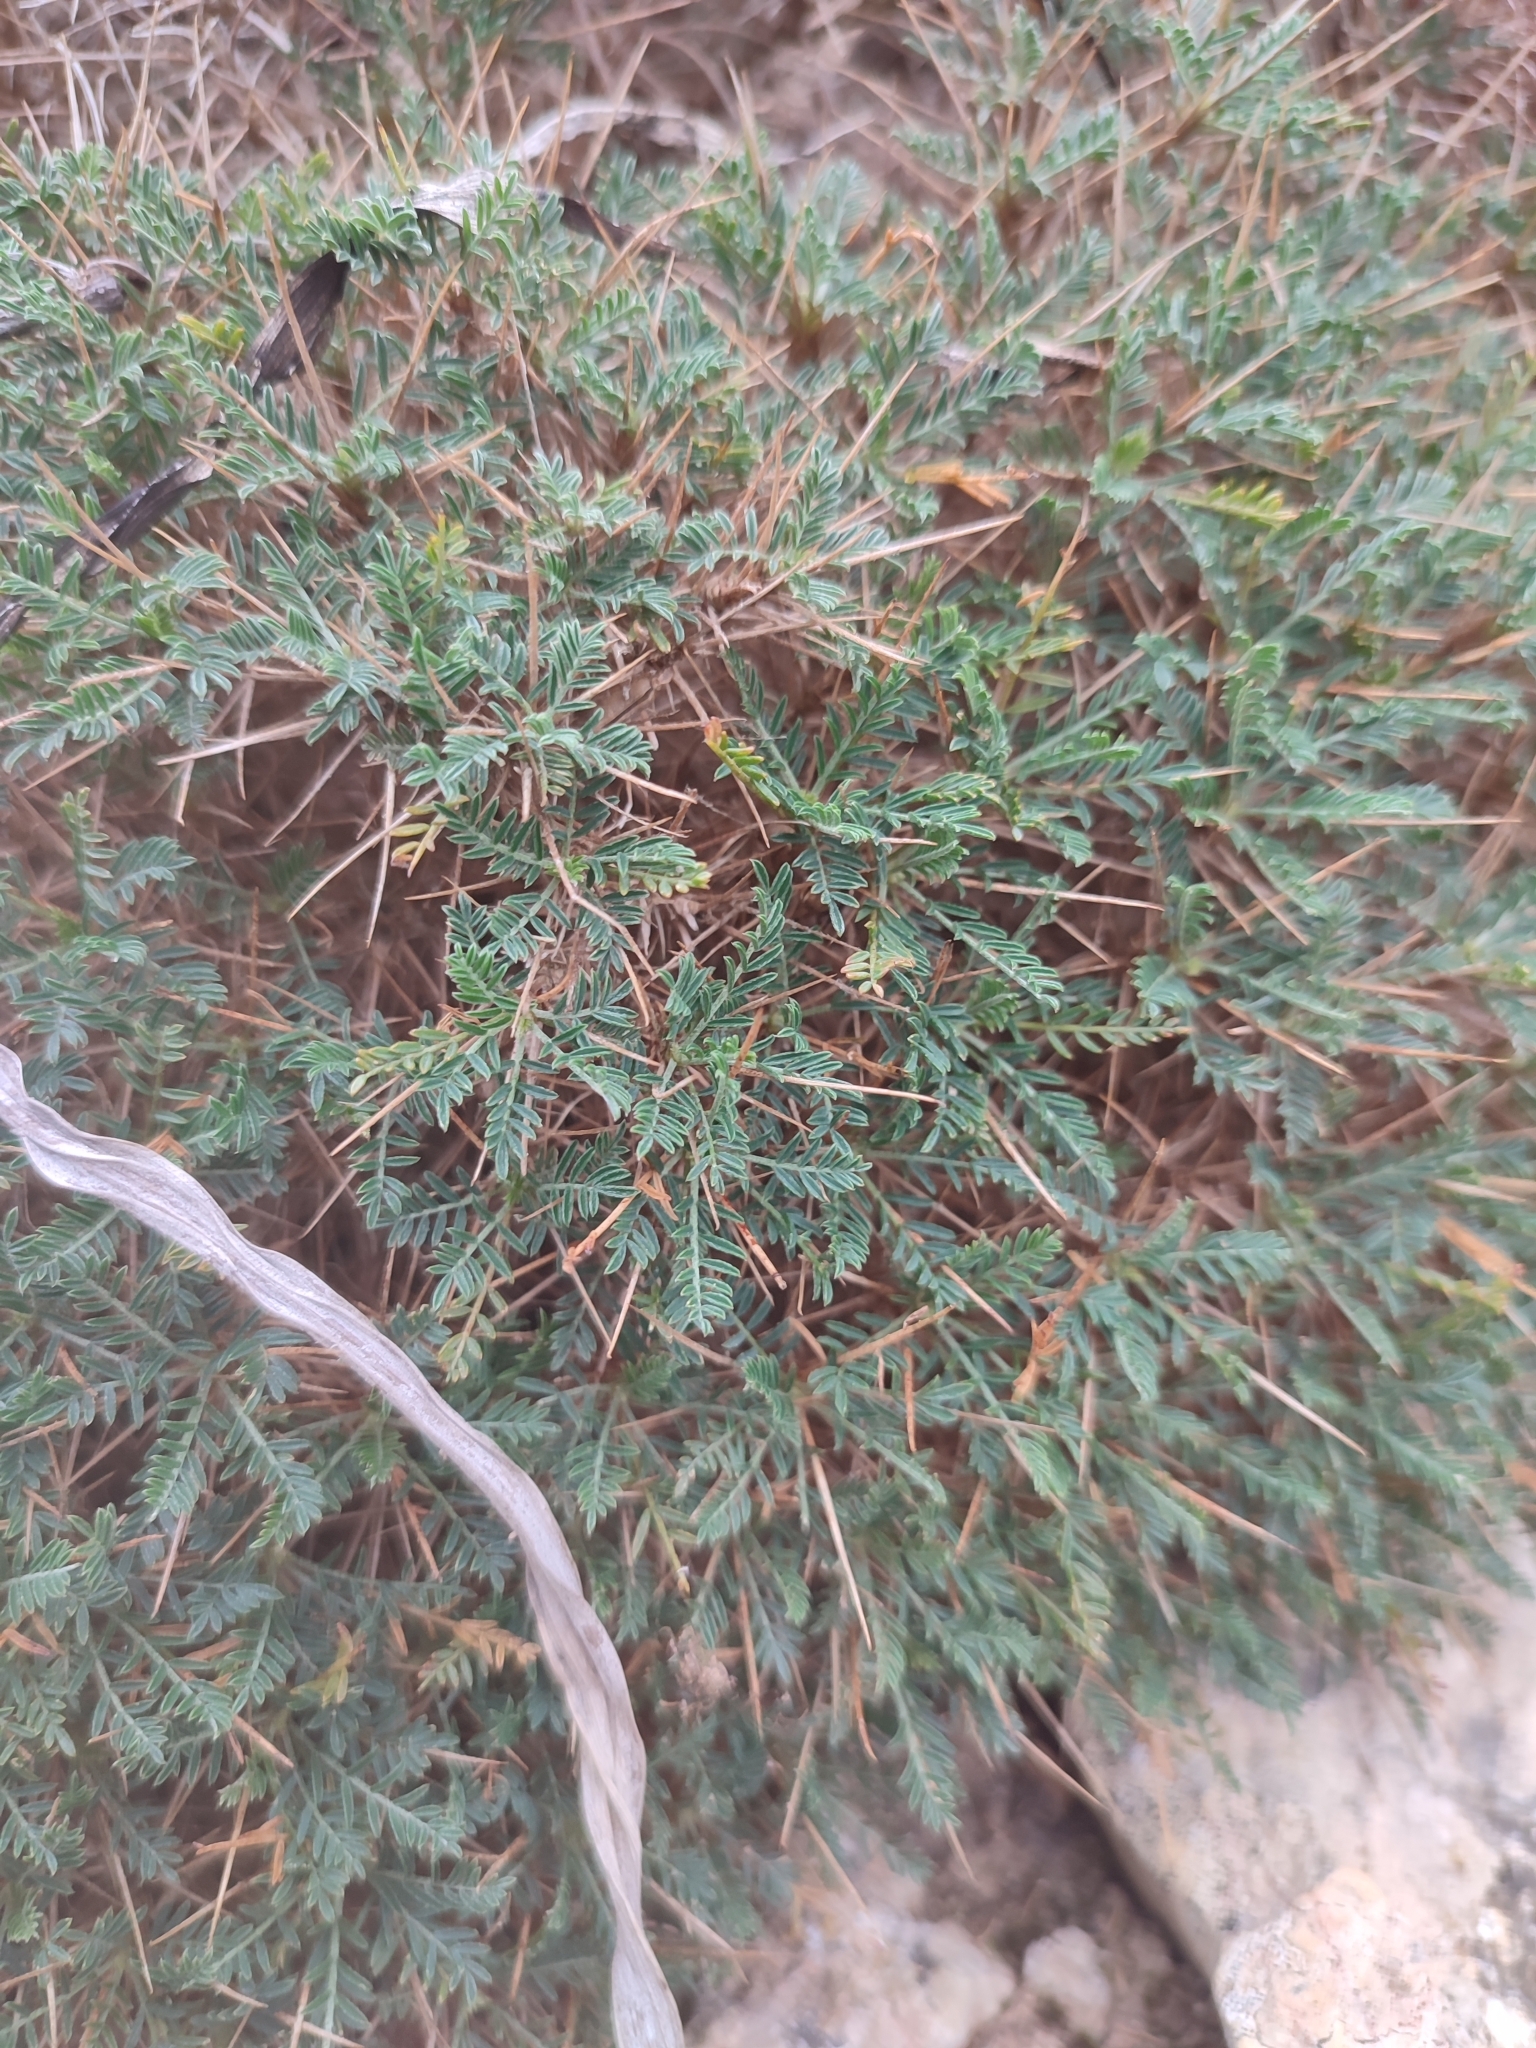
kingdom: Plantae
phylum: Tracheophyta
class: Magnoliopsida
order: Fabales
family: Fabaceae
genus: Astragalus
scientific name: Astragalus balearicus
